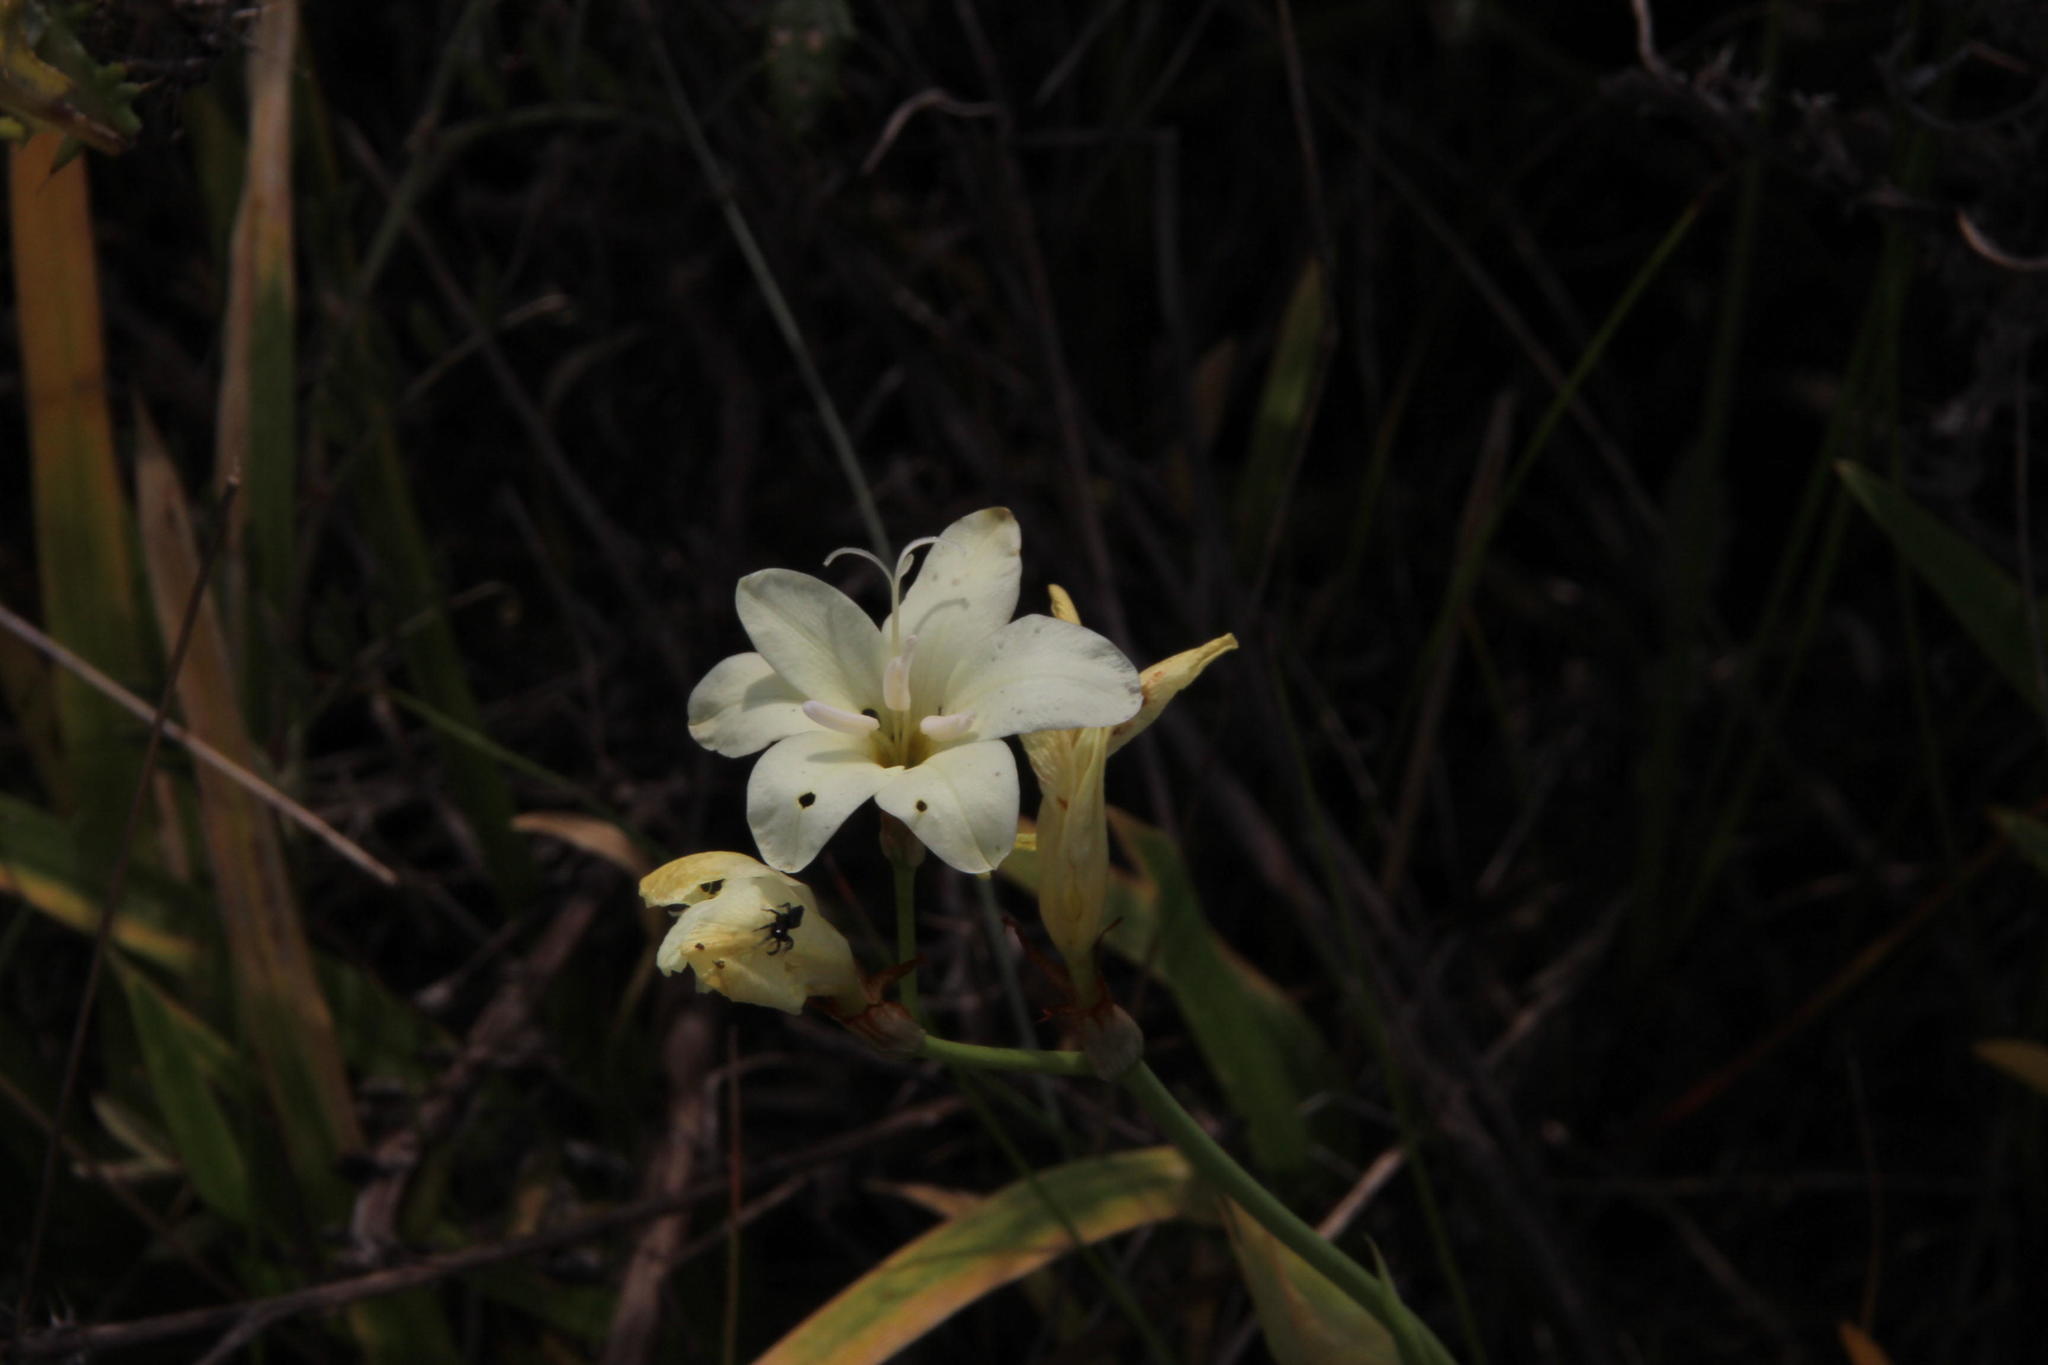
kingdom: Plantae
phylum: Tracheophyta
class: Liliopsida
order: Asparagales
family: Iridaceae
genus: Sparaxis
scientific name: Sparaxis bulbifera
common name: Harlequin-flower
